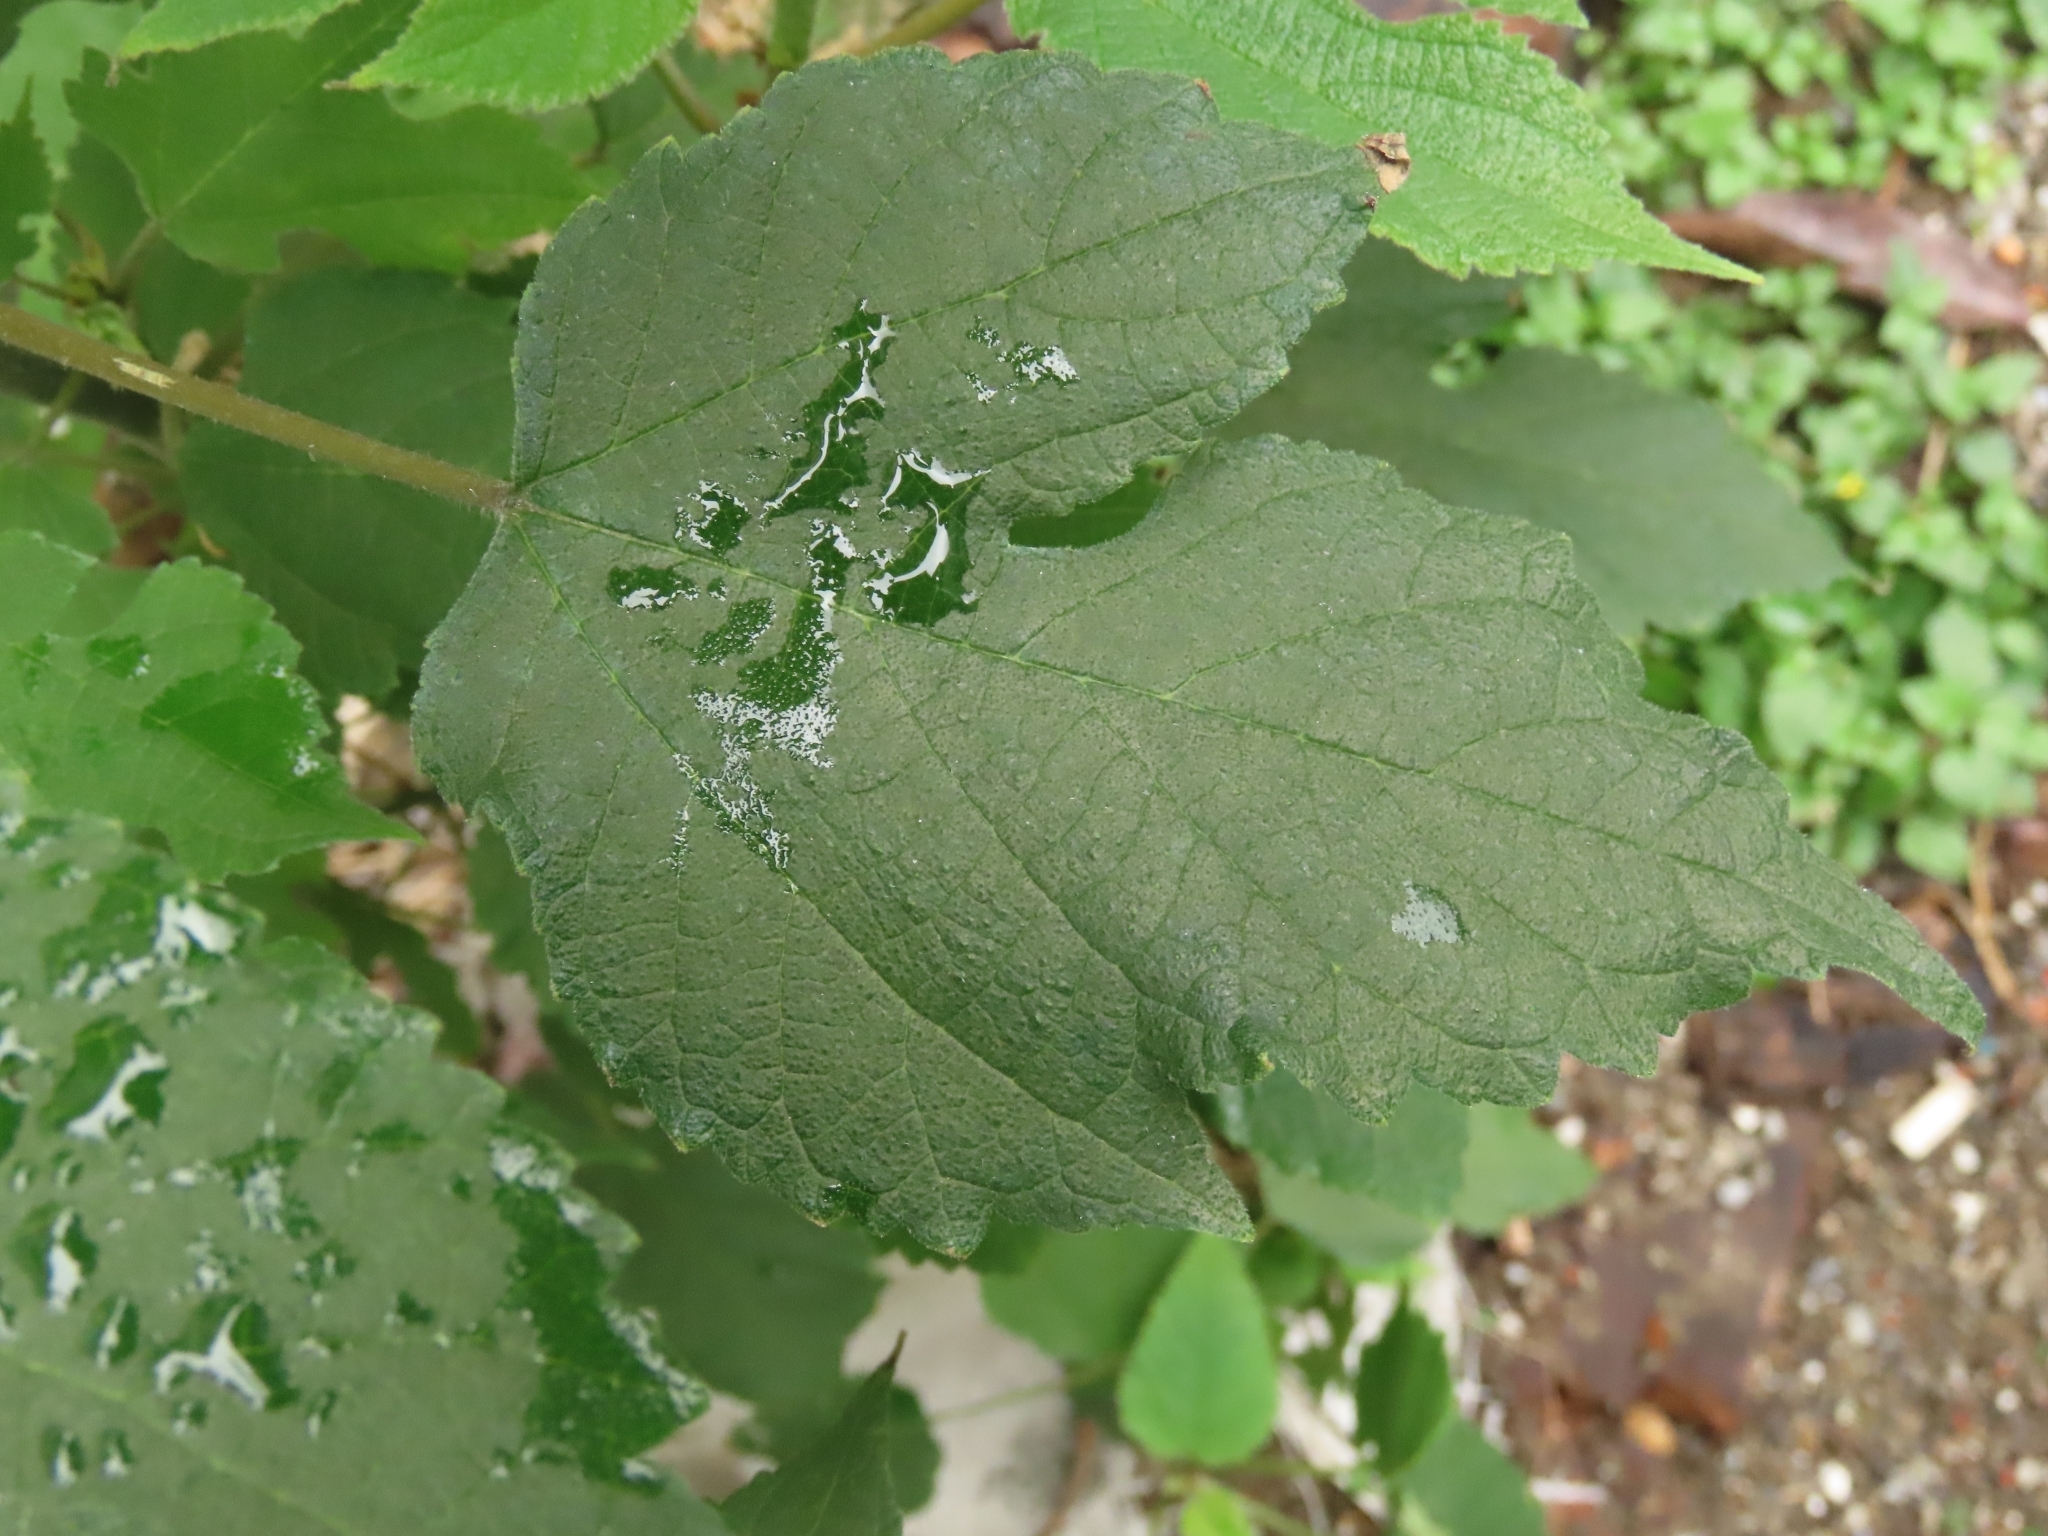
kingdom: Plantae
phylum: Tracheophyta
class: Magnoliopsida
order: Rosales
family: Moraceae
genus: Broussonetia
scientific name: Broussonetia papyrifera
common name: Paper mulberry
